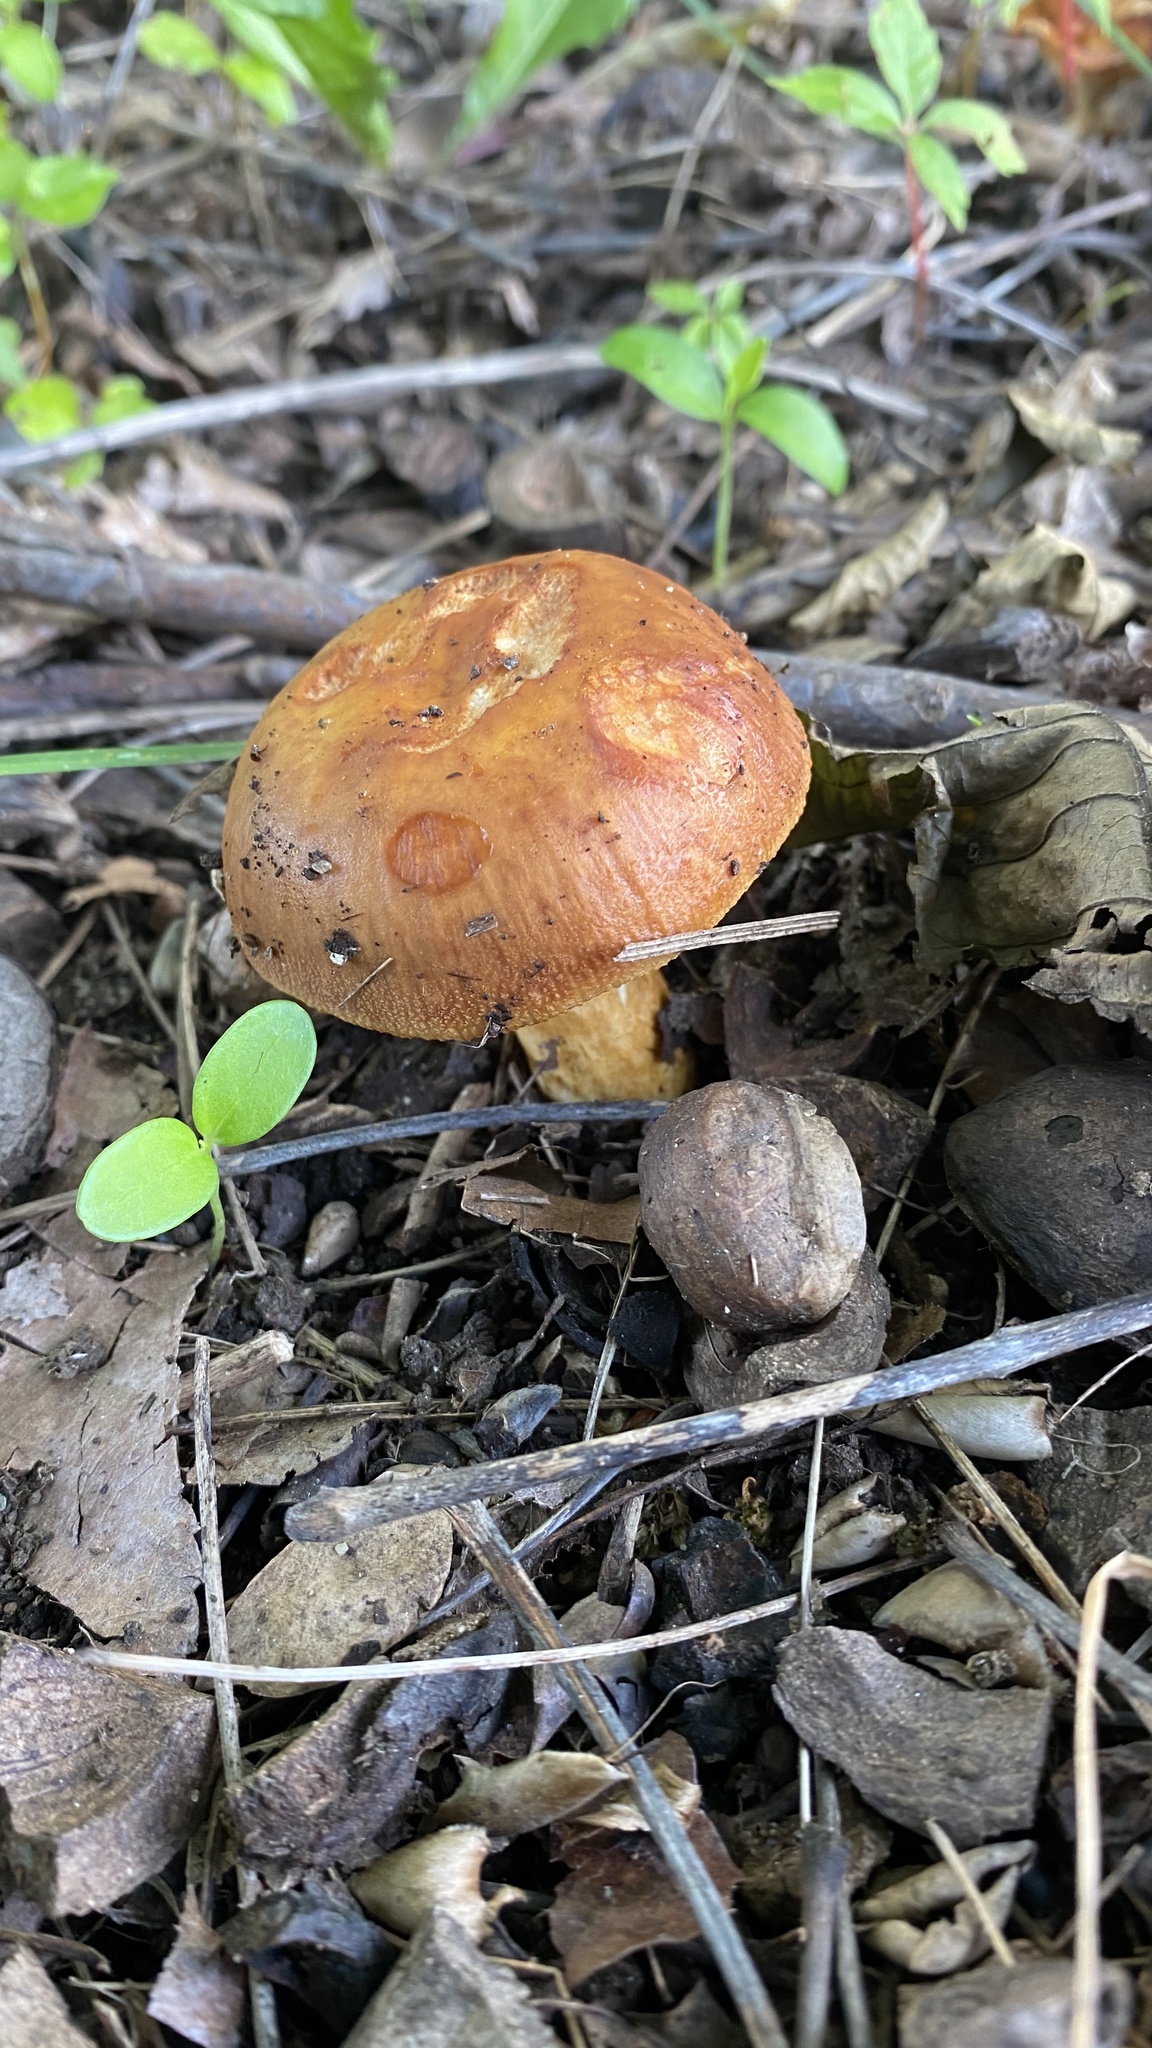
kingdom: Fungi
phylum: Basidiomycota
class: Agaricomycetes
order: Russulales
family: Russulaceae
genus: Russula
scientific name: Russula mutabilis
